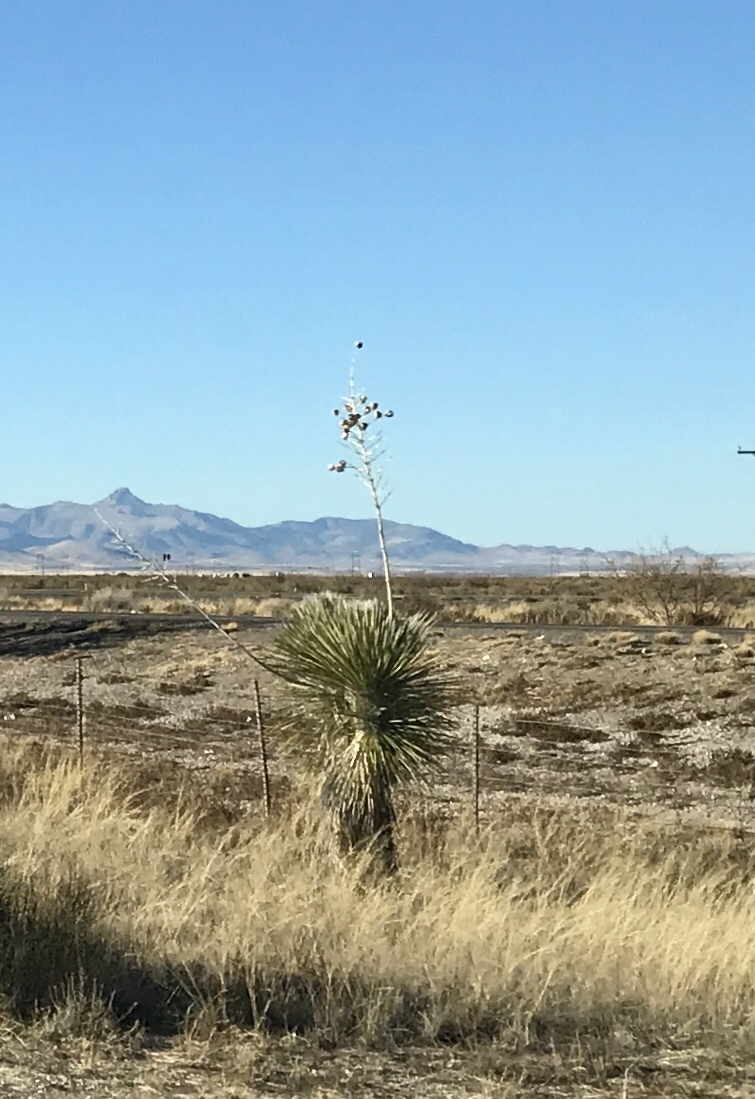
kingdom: Plantae
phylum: Tracheophyta
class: Liliopsida
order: Asparagales
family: Asparagaceae
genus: Yucca
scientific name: Yucca elata
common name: Palmella
